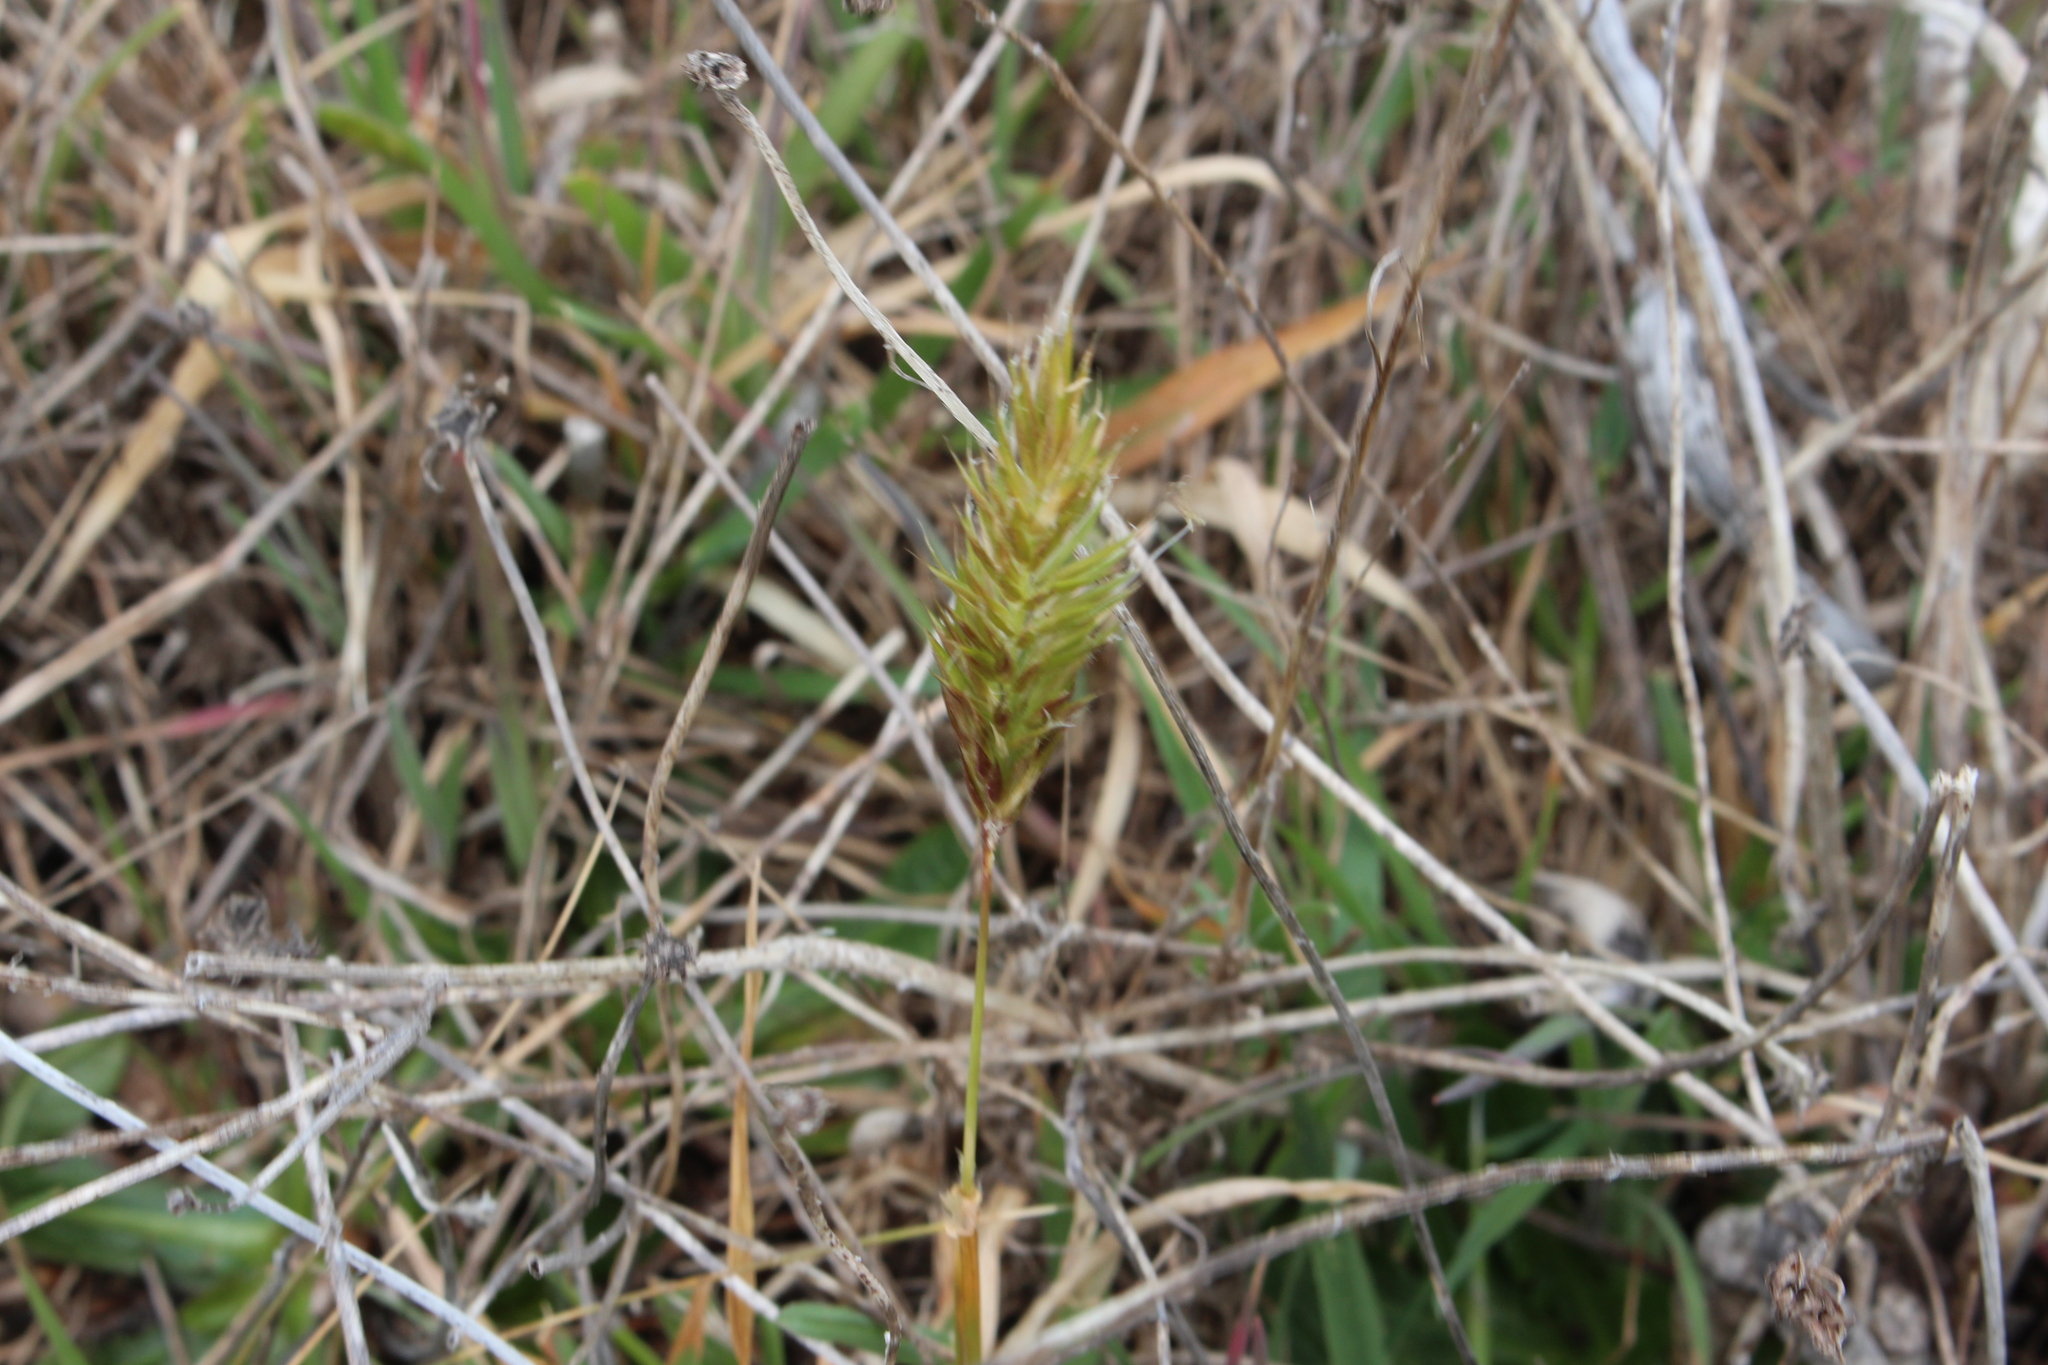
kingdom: Plantae
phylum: Tracheophyta
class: Liliopsida
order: Poales
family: Poaceae
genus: Anthoxanthum
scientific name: Anthoxanthum odoratum
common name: Sweet vernalgrass
